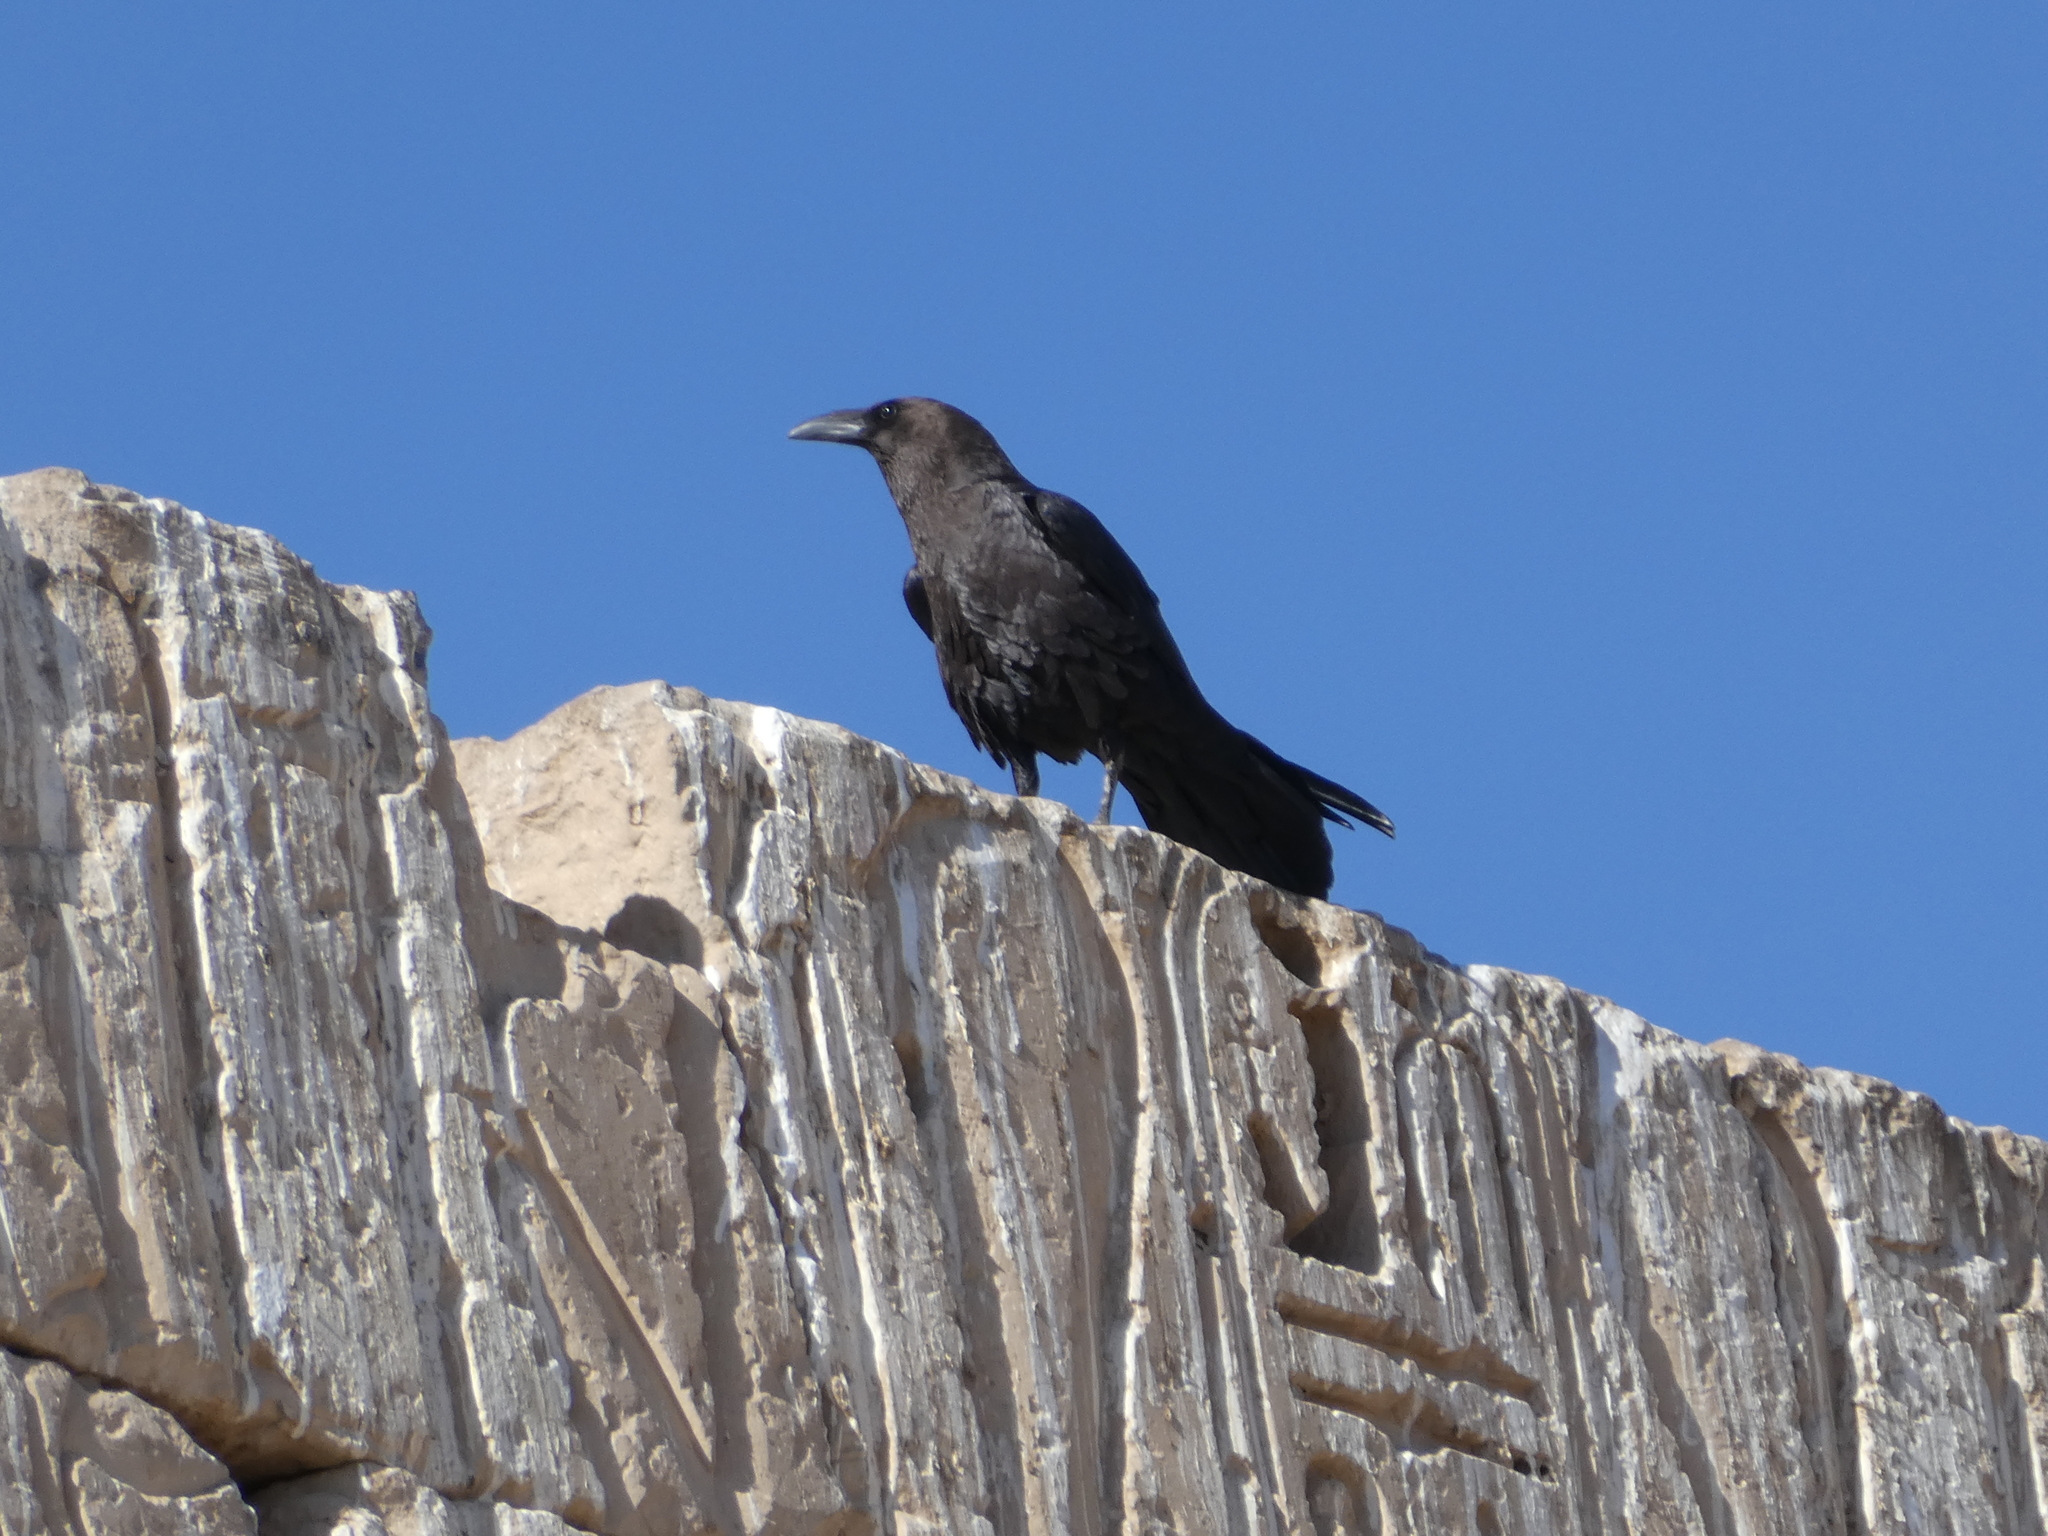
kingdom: Animalia
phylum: Chordata
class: Aves
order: Passeriformes
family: Corvidae
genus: Corvus
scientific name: Corvus ruficollis
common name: Brown-necked raven
